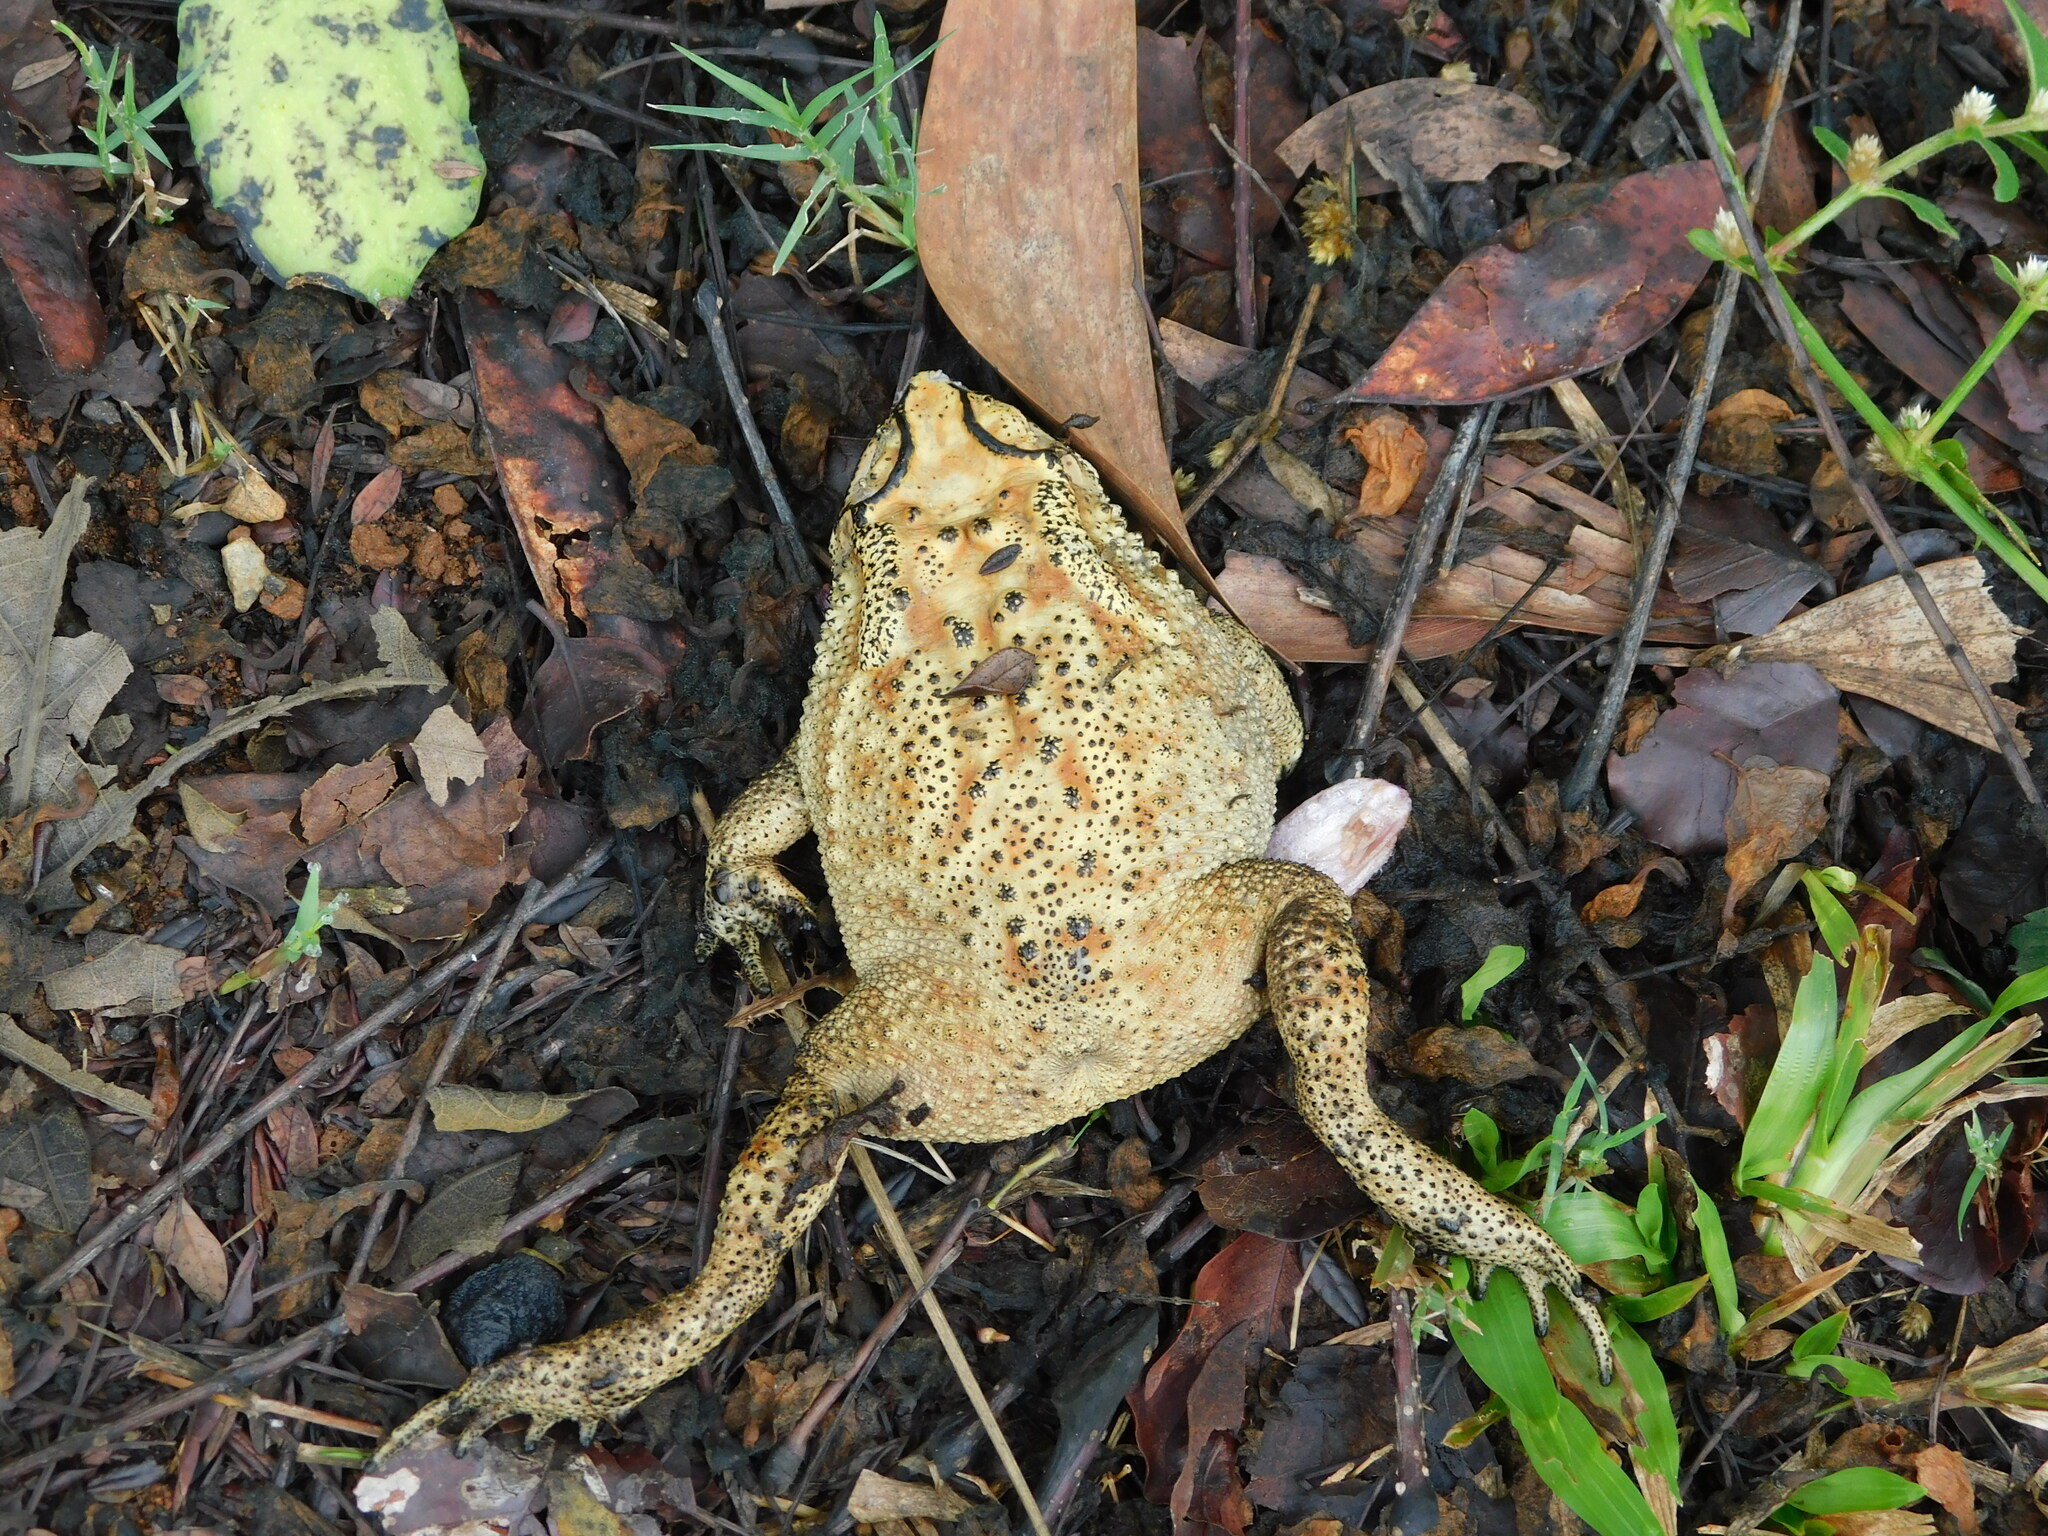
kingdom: Animalia
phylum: Chordata
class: Amphibia
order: Anura
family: Bufonidae
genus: Duttaphrynus
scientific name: Duttaphrynus melanostictus
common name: Common sunda toad
